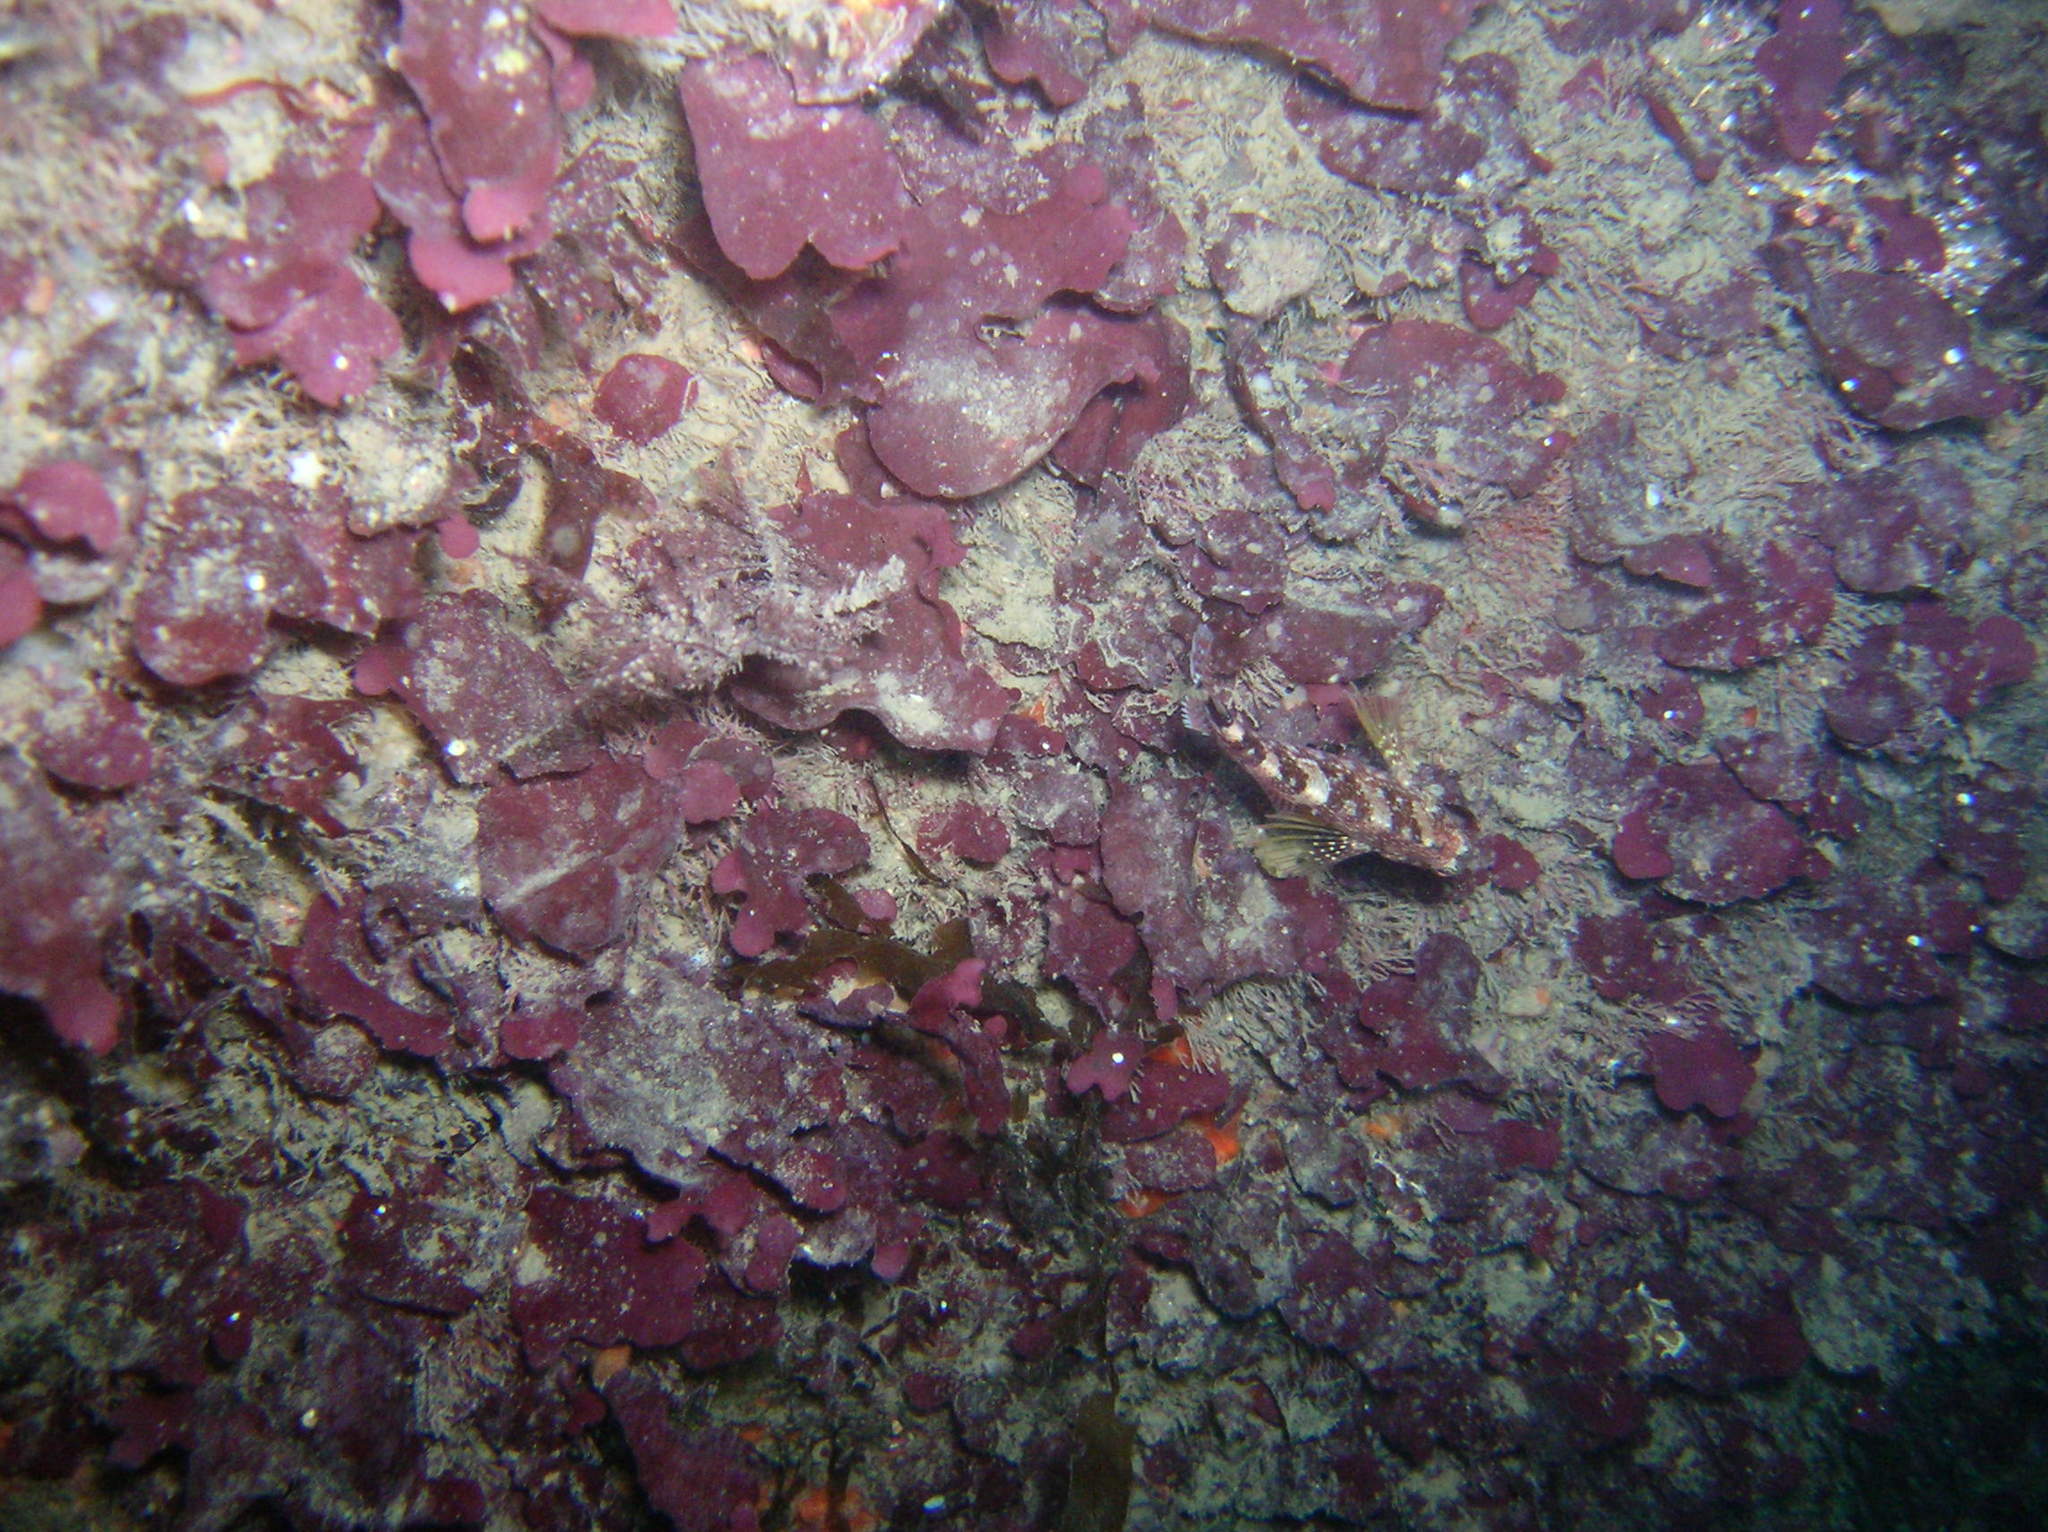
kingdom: Animalia
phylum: Chordata
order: Perciformes
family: Tripterygiidae
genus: Tripterygion
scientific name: Tripterygion delaisi
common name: Black-face blenny
